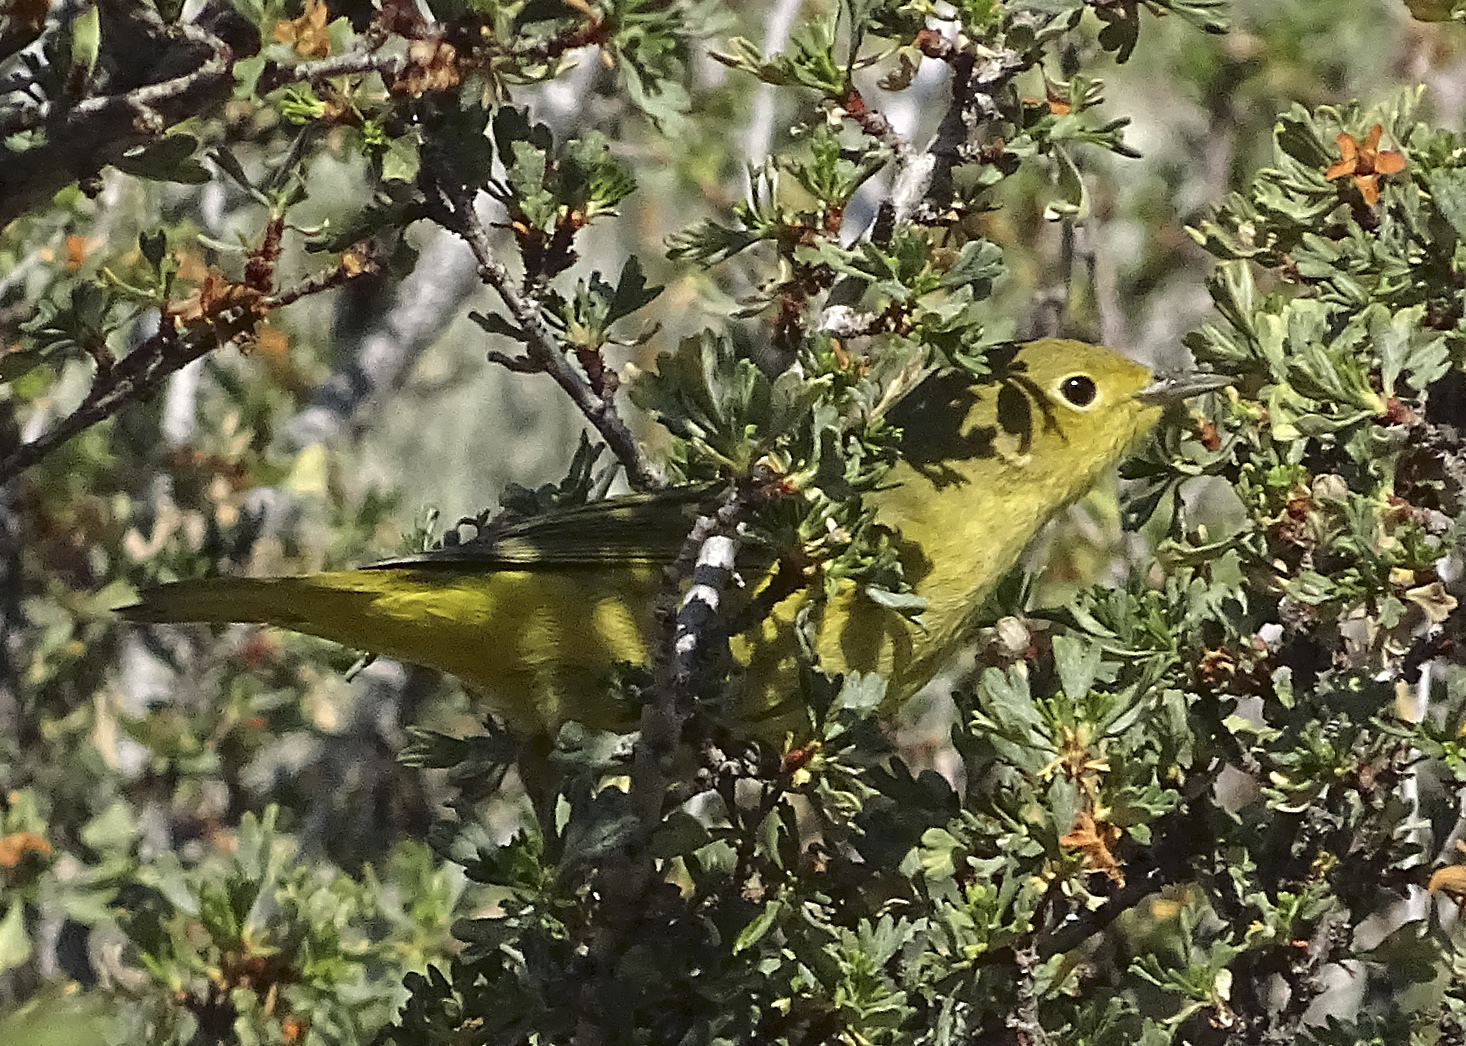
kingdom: Animalia
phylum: Chordata
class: Aves
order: Passeriformes
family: Parulidae
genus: Setophaga
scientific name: Setophaga petechia
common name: Yellow warbler
